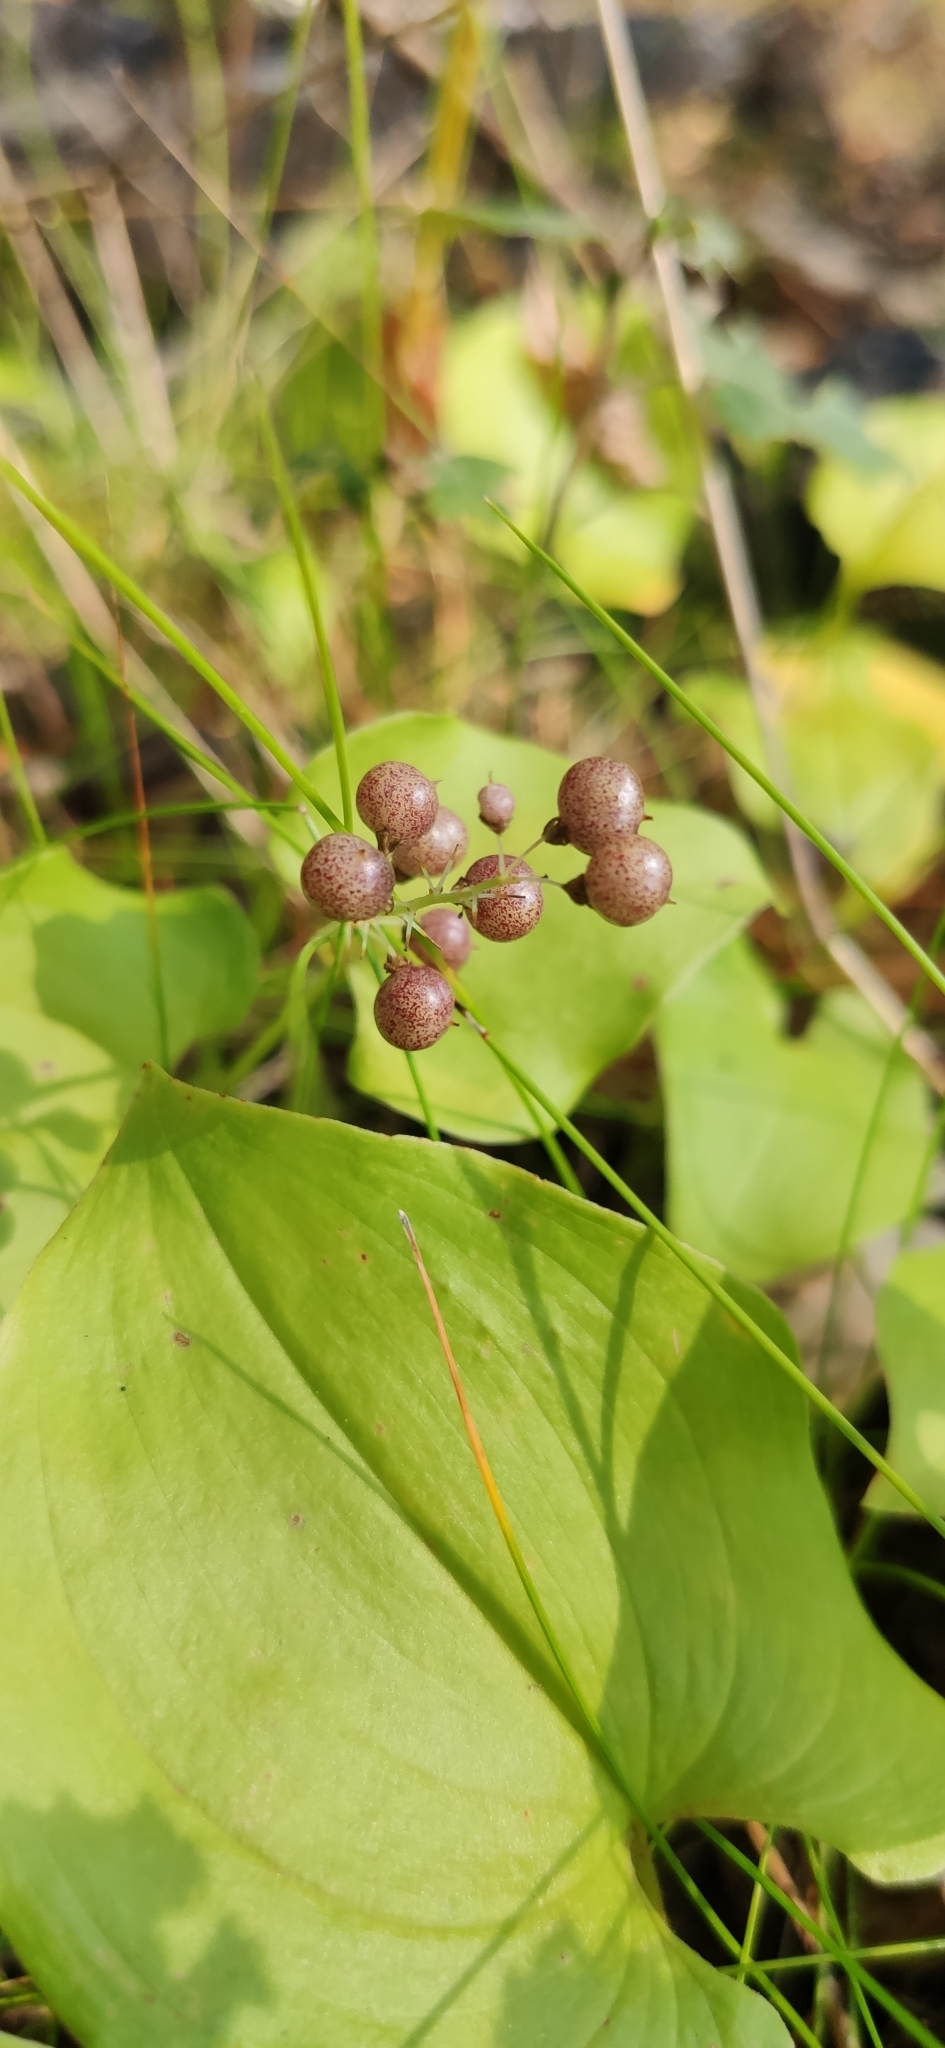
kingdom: Plantae
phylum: Tracheophyta
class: Liliopsida
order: Asparagales
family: Asparagaceae
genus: Maianthemum
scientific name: Maianthemum bifolium
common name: May lily
